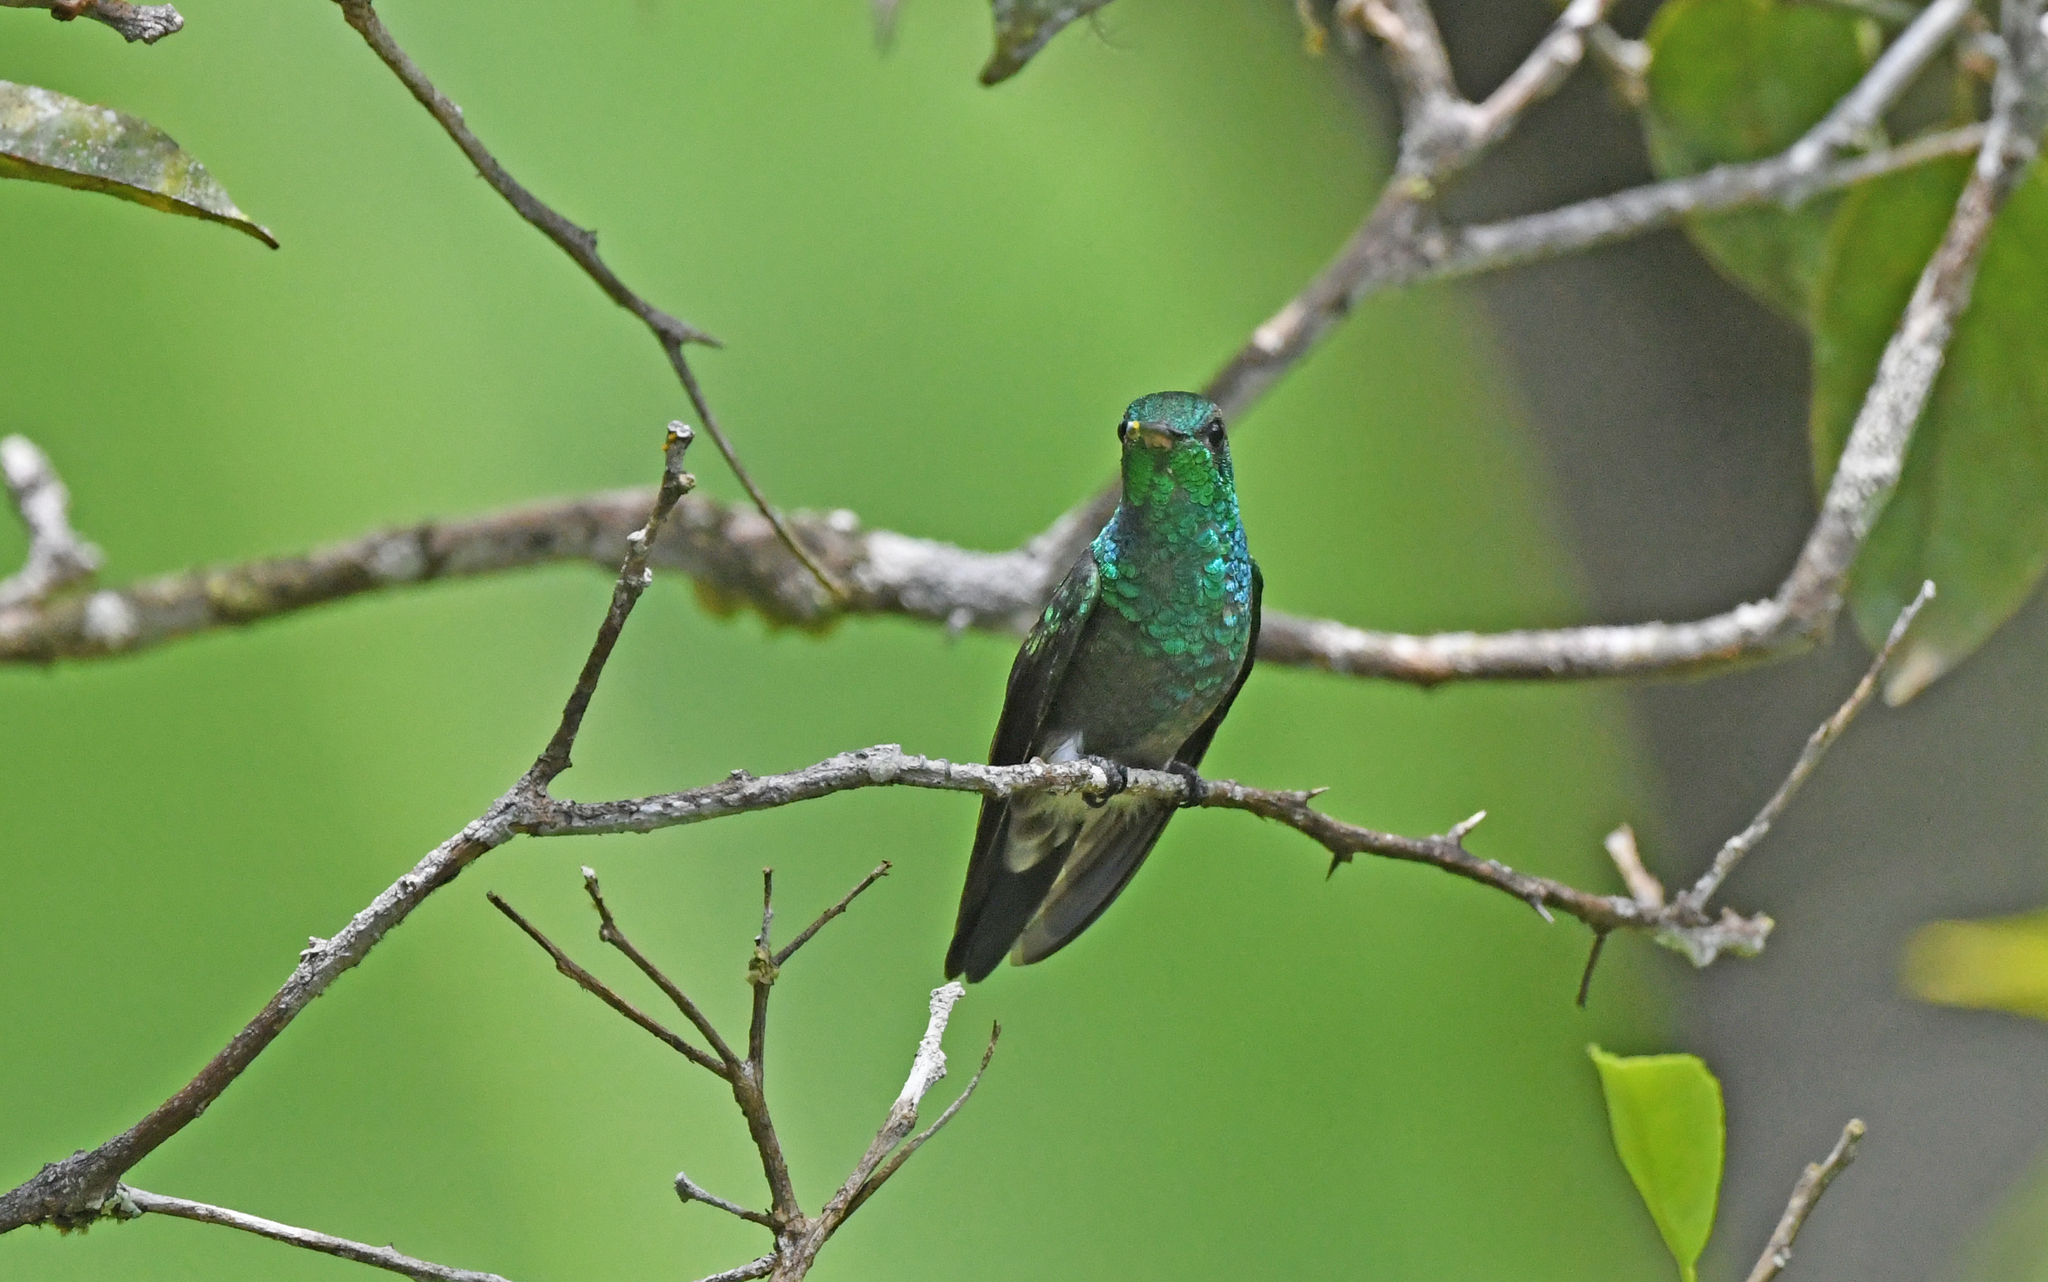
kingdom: Animalia
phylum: Chordata
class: Aves
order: Apodiformes
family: Trochilidae
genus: Saucerottia
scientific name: Saucerottia saucerottei
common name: Steely-vented hummingbird
